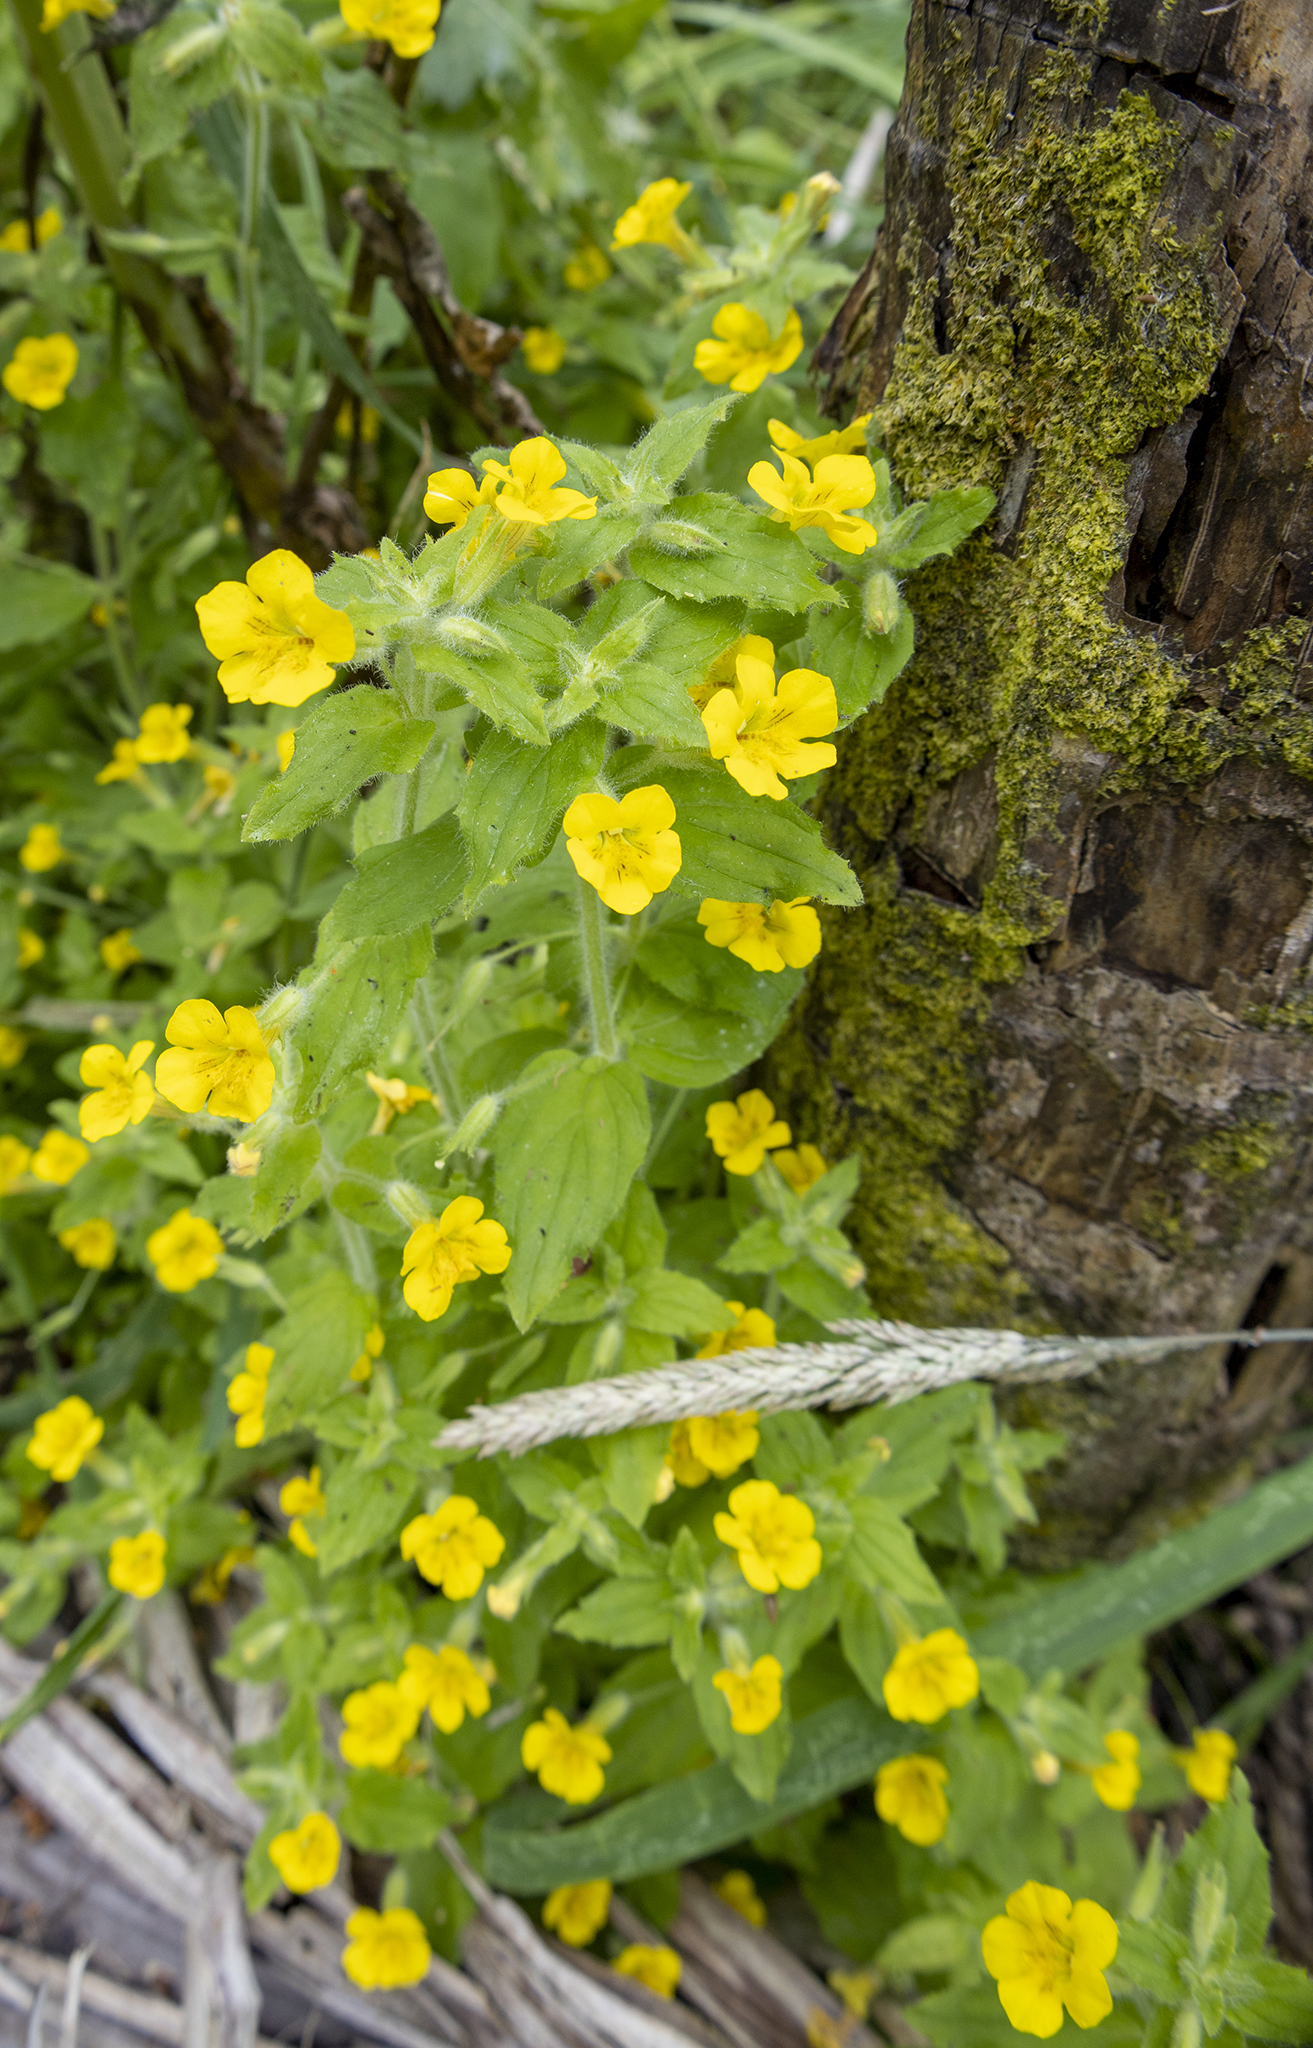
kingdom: Plantae
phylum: Tracheophyta
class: Magnoliopsida
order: Lamiales
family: Phrymaceae
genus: Erythranthe
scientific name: Erythranthe moschata
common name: Muskflower
